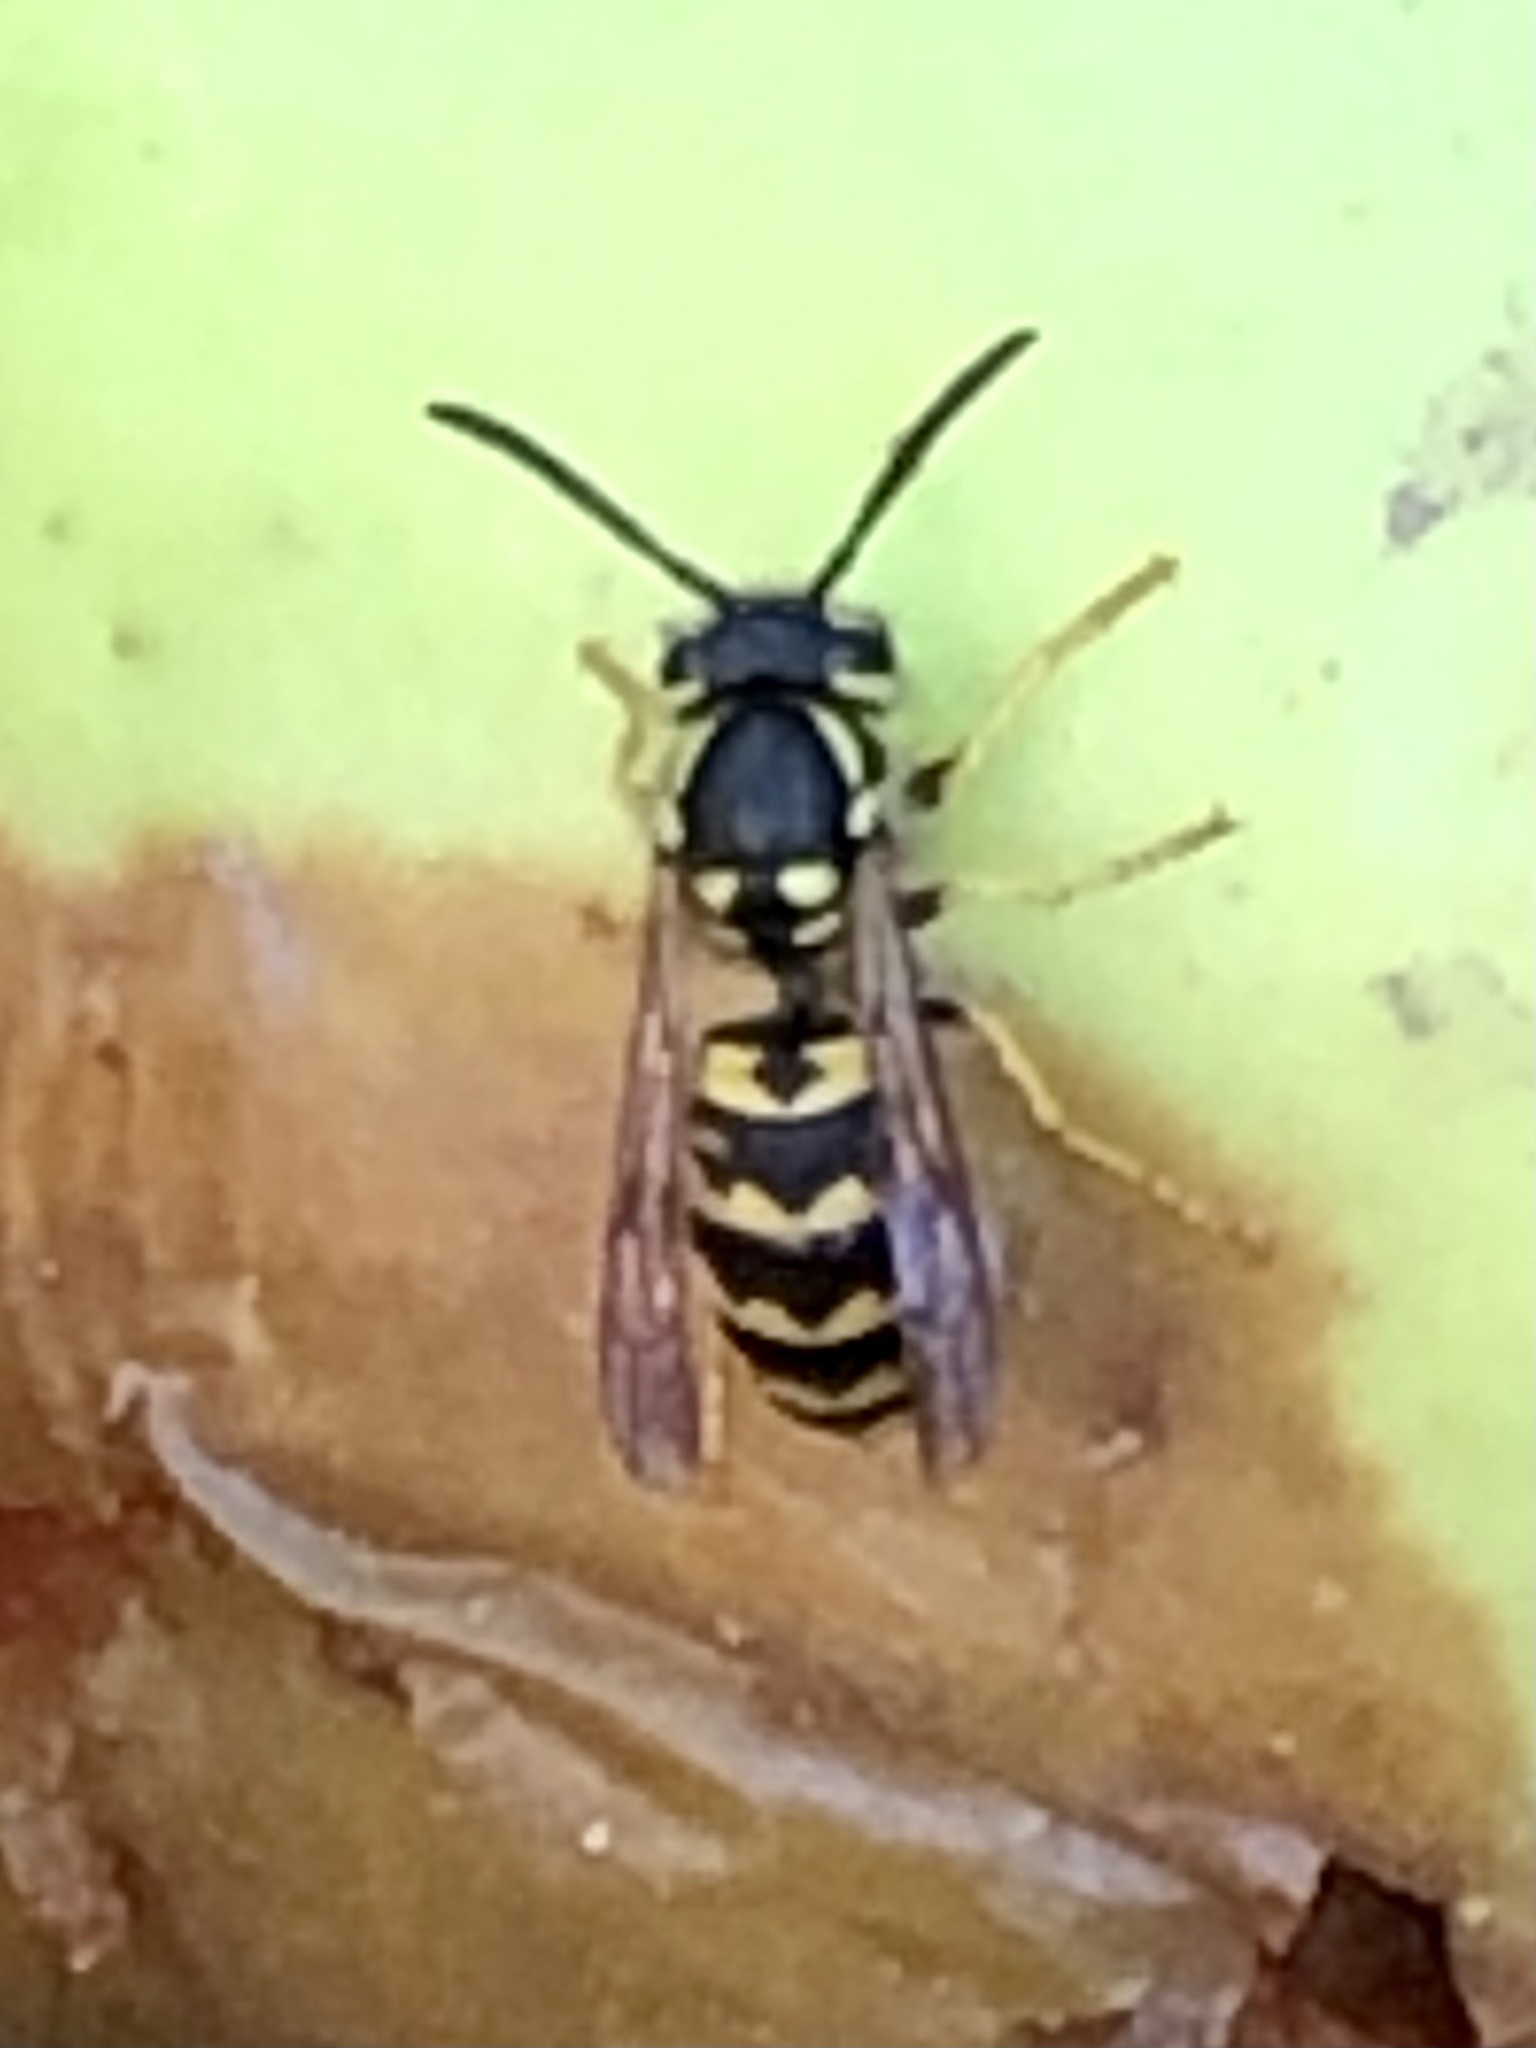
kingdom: Animalia
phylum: Arthropoda
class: Insecta
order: Hymenoptera
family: Vespidae
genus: Vespula
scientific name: Vespula germanica
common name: German wasp
